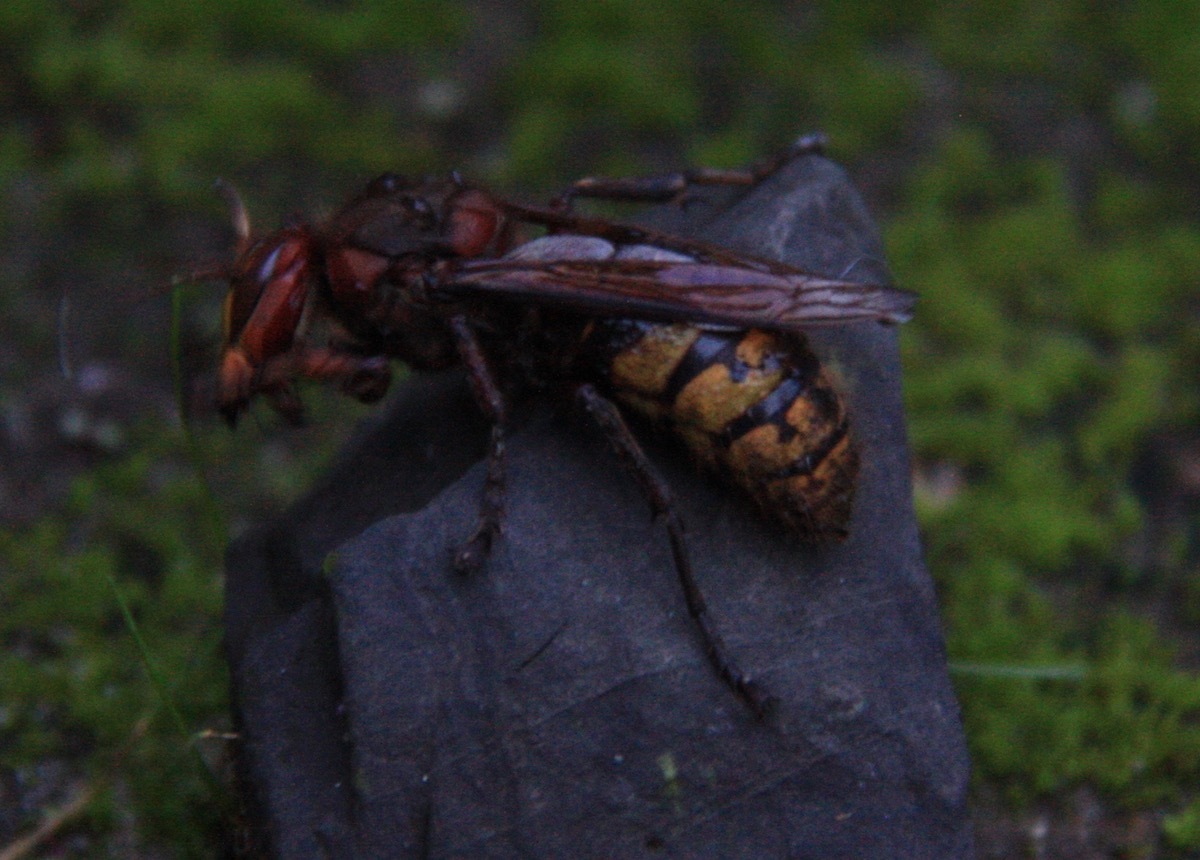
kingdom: Animalia
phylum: Arthropoda
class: Insecta
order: Hymenoptera
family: Vespidae
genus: Vespa
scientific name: Vespa crabro
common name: Hornet
